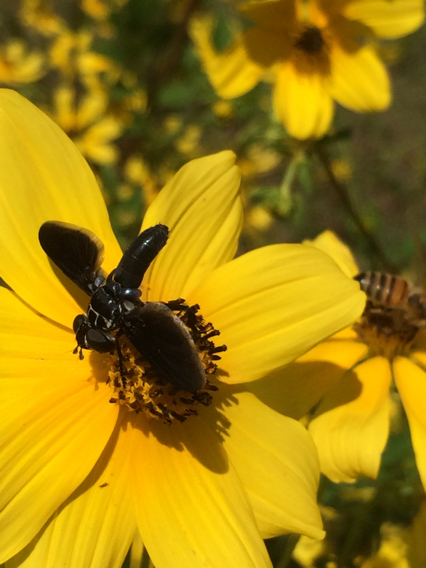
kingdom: Animalia
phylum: Arthropoda
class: Insecta
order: Diptera
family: Tachinidae
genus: Trichopoda
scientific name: Trichopoda lanipes
